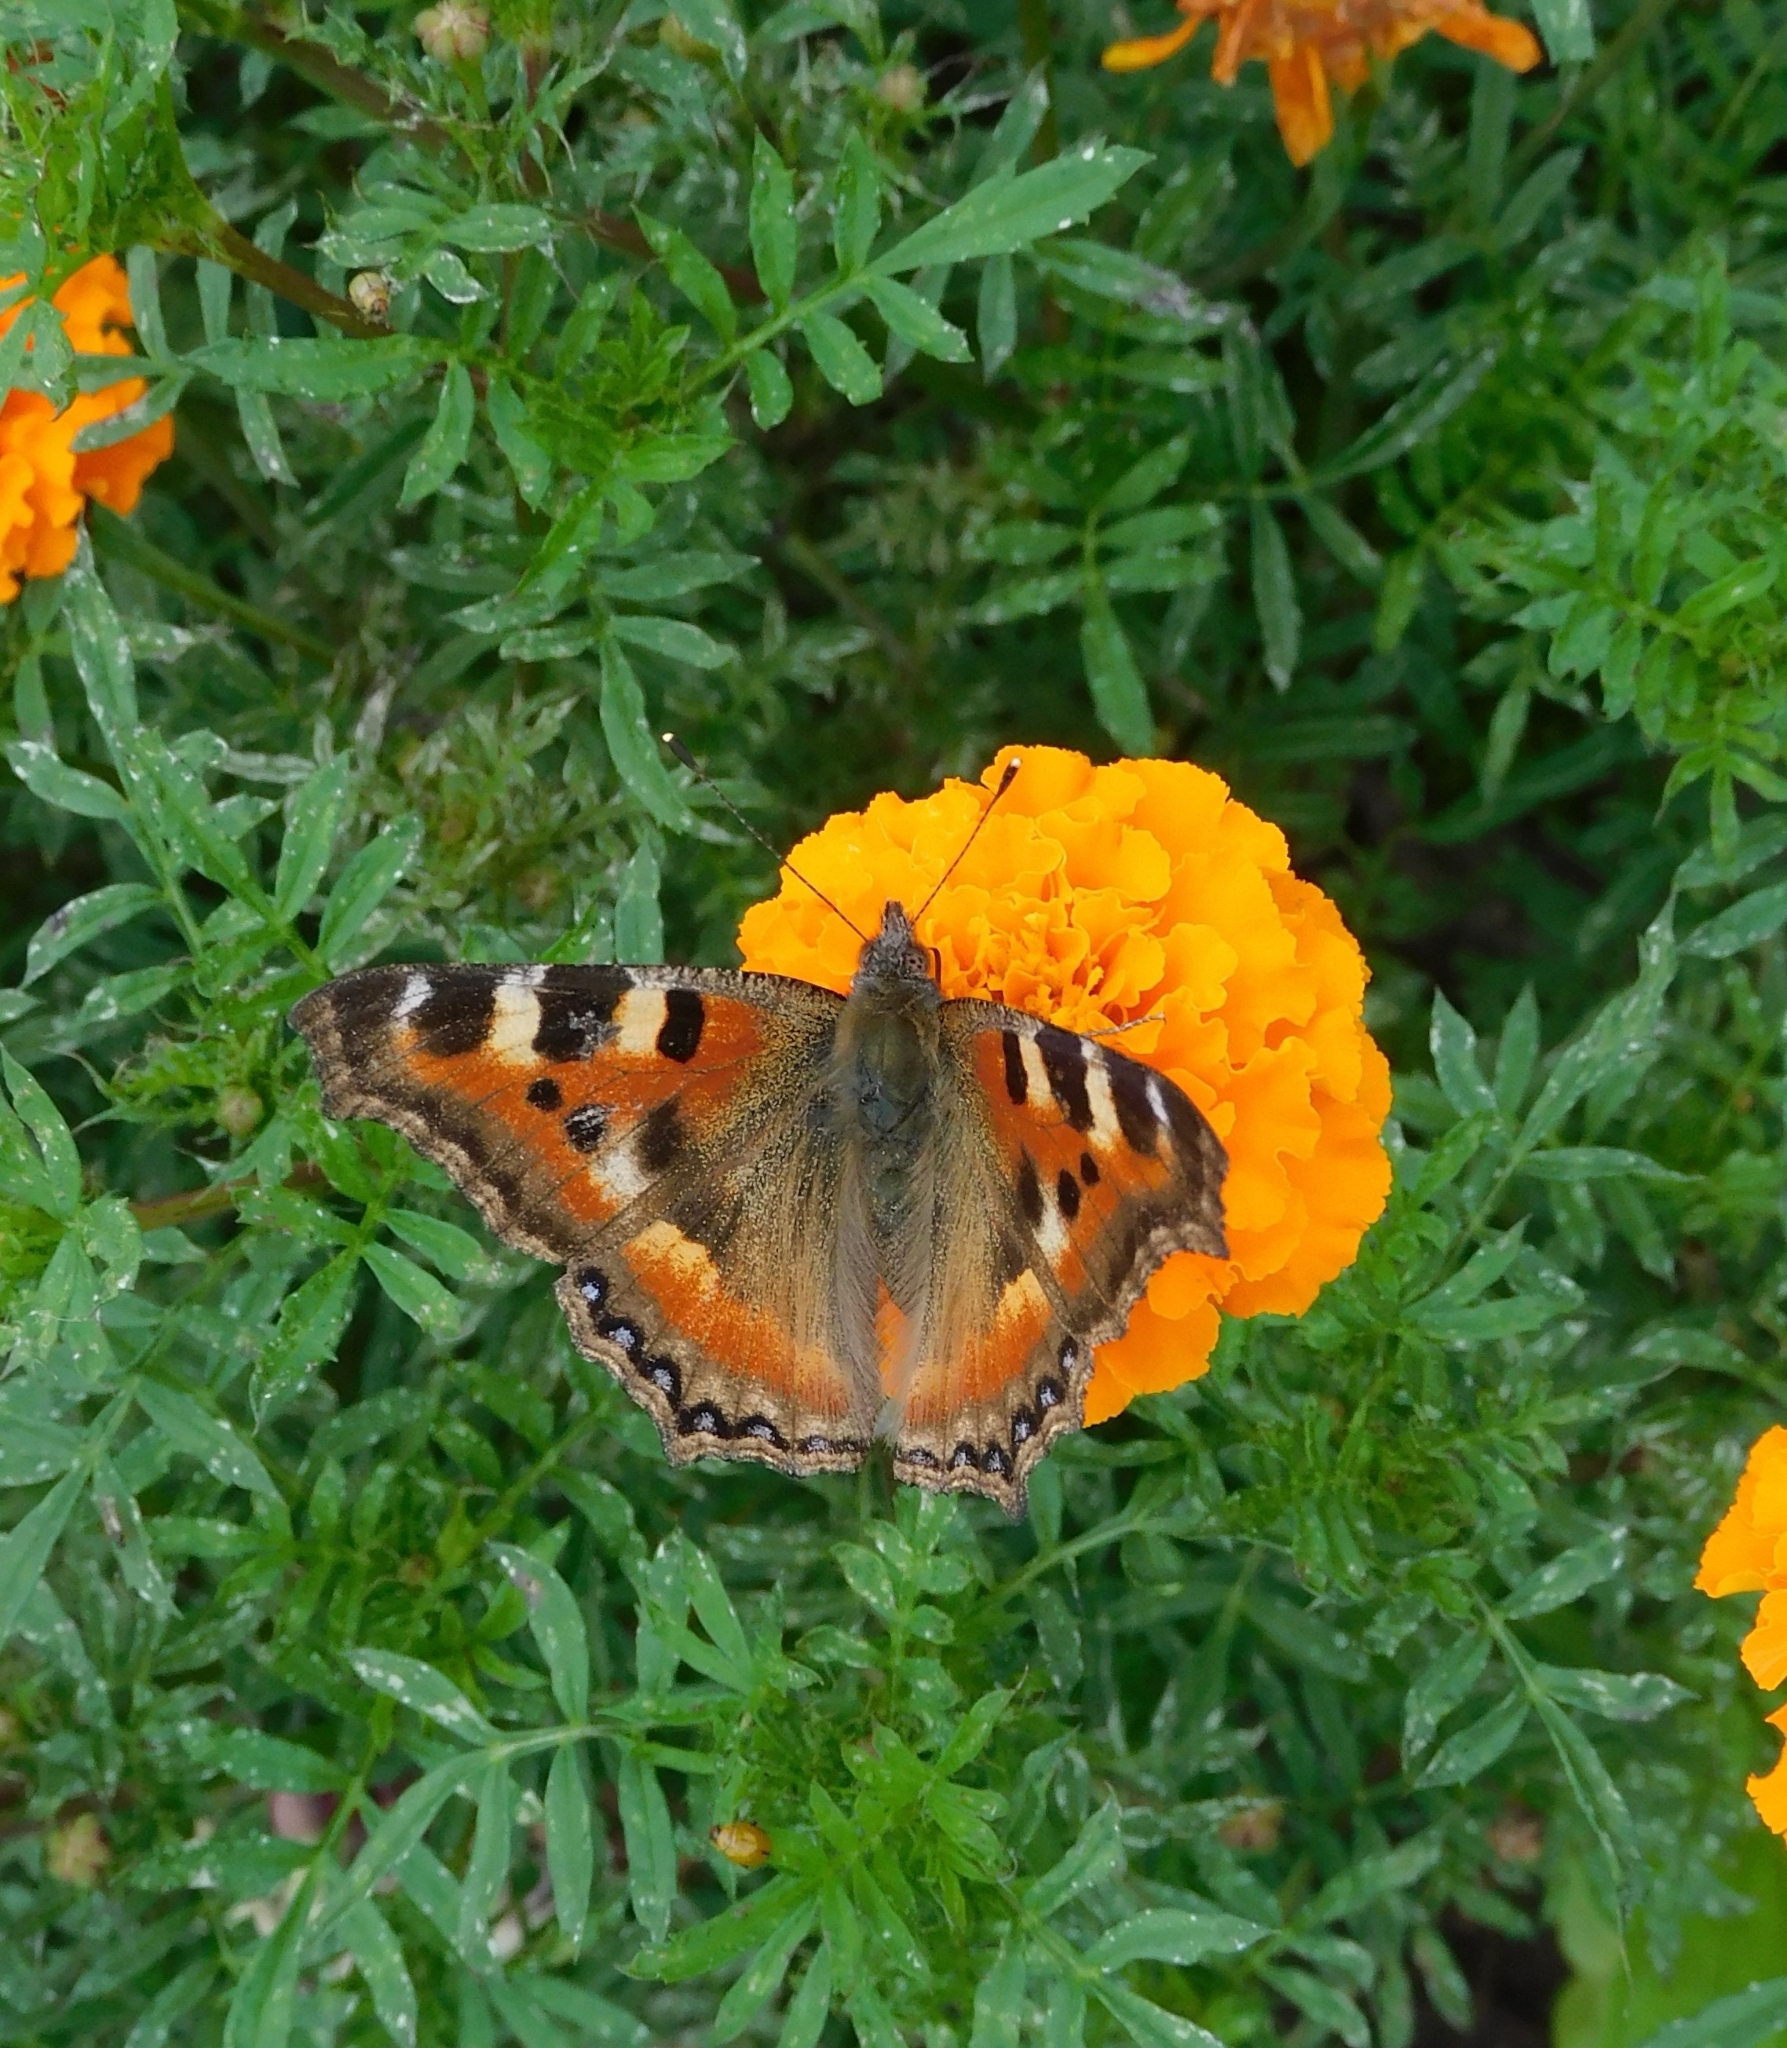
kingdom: Animalia
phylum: Arthropoda
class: Insecta
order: Lepidoptera
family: Nymphalidae
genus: Aglais
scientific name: Aglais caschmirensis
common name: Indian tortoiseshell
